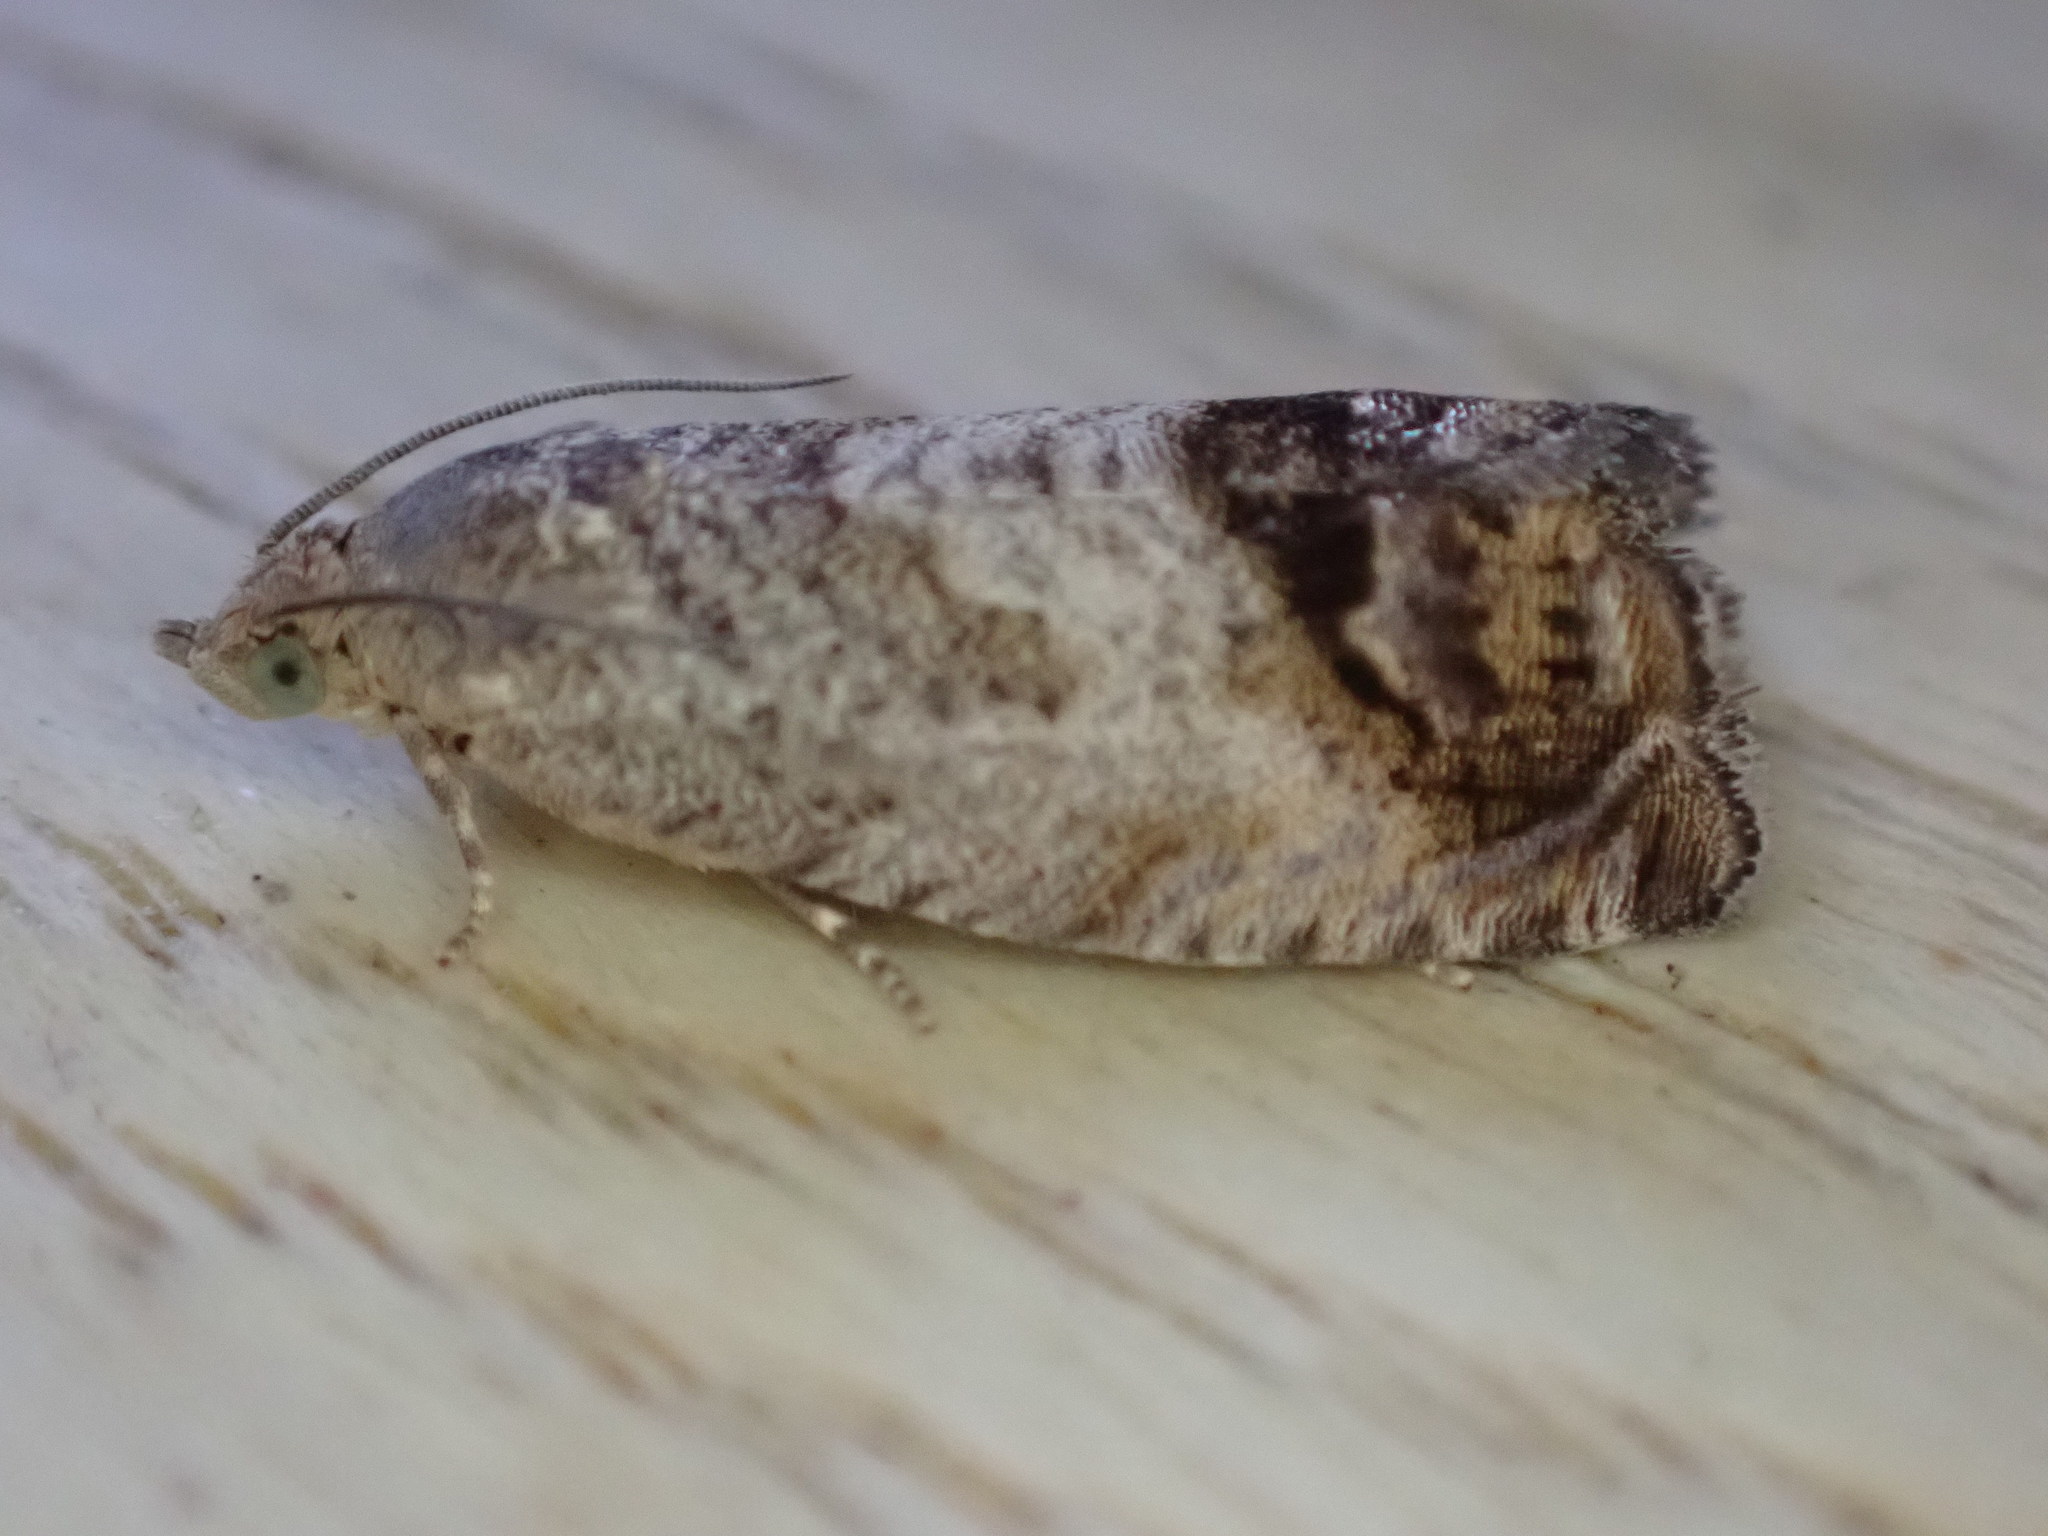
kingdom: Animalia
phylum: Arthropoda
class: Insecta
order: Lepidoptera
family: Tortricidae
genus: Cydia
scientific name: Cydia splendana
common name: De: kastanienwickler, eichenwickler es: oruga de la castaña fr: carpocapse des châtaignes it: cidia o tortrice tardiva delle castagne pt: bichado das castanhas gb: acorn moth, chestnut fruit tortrix
